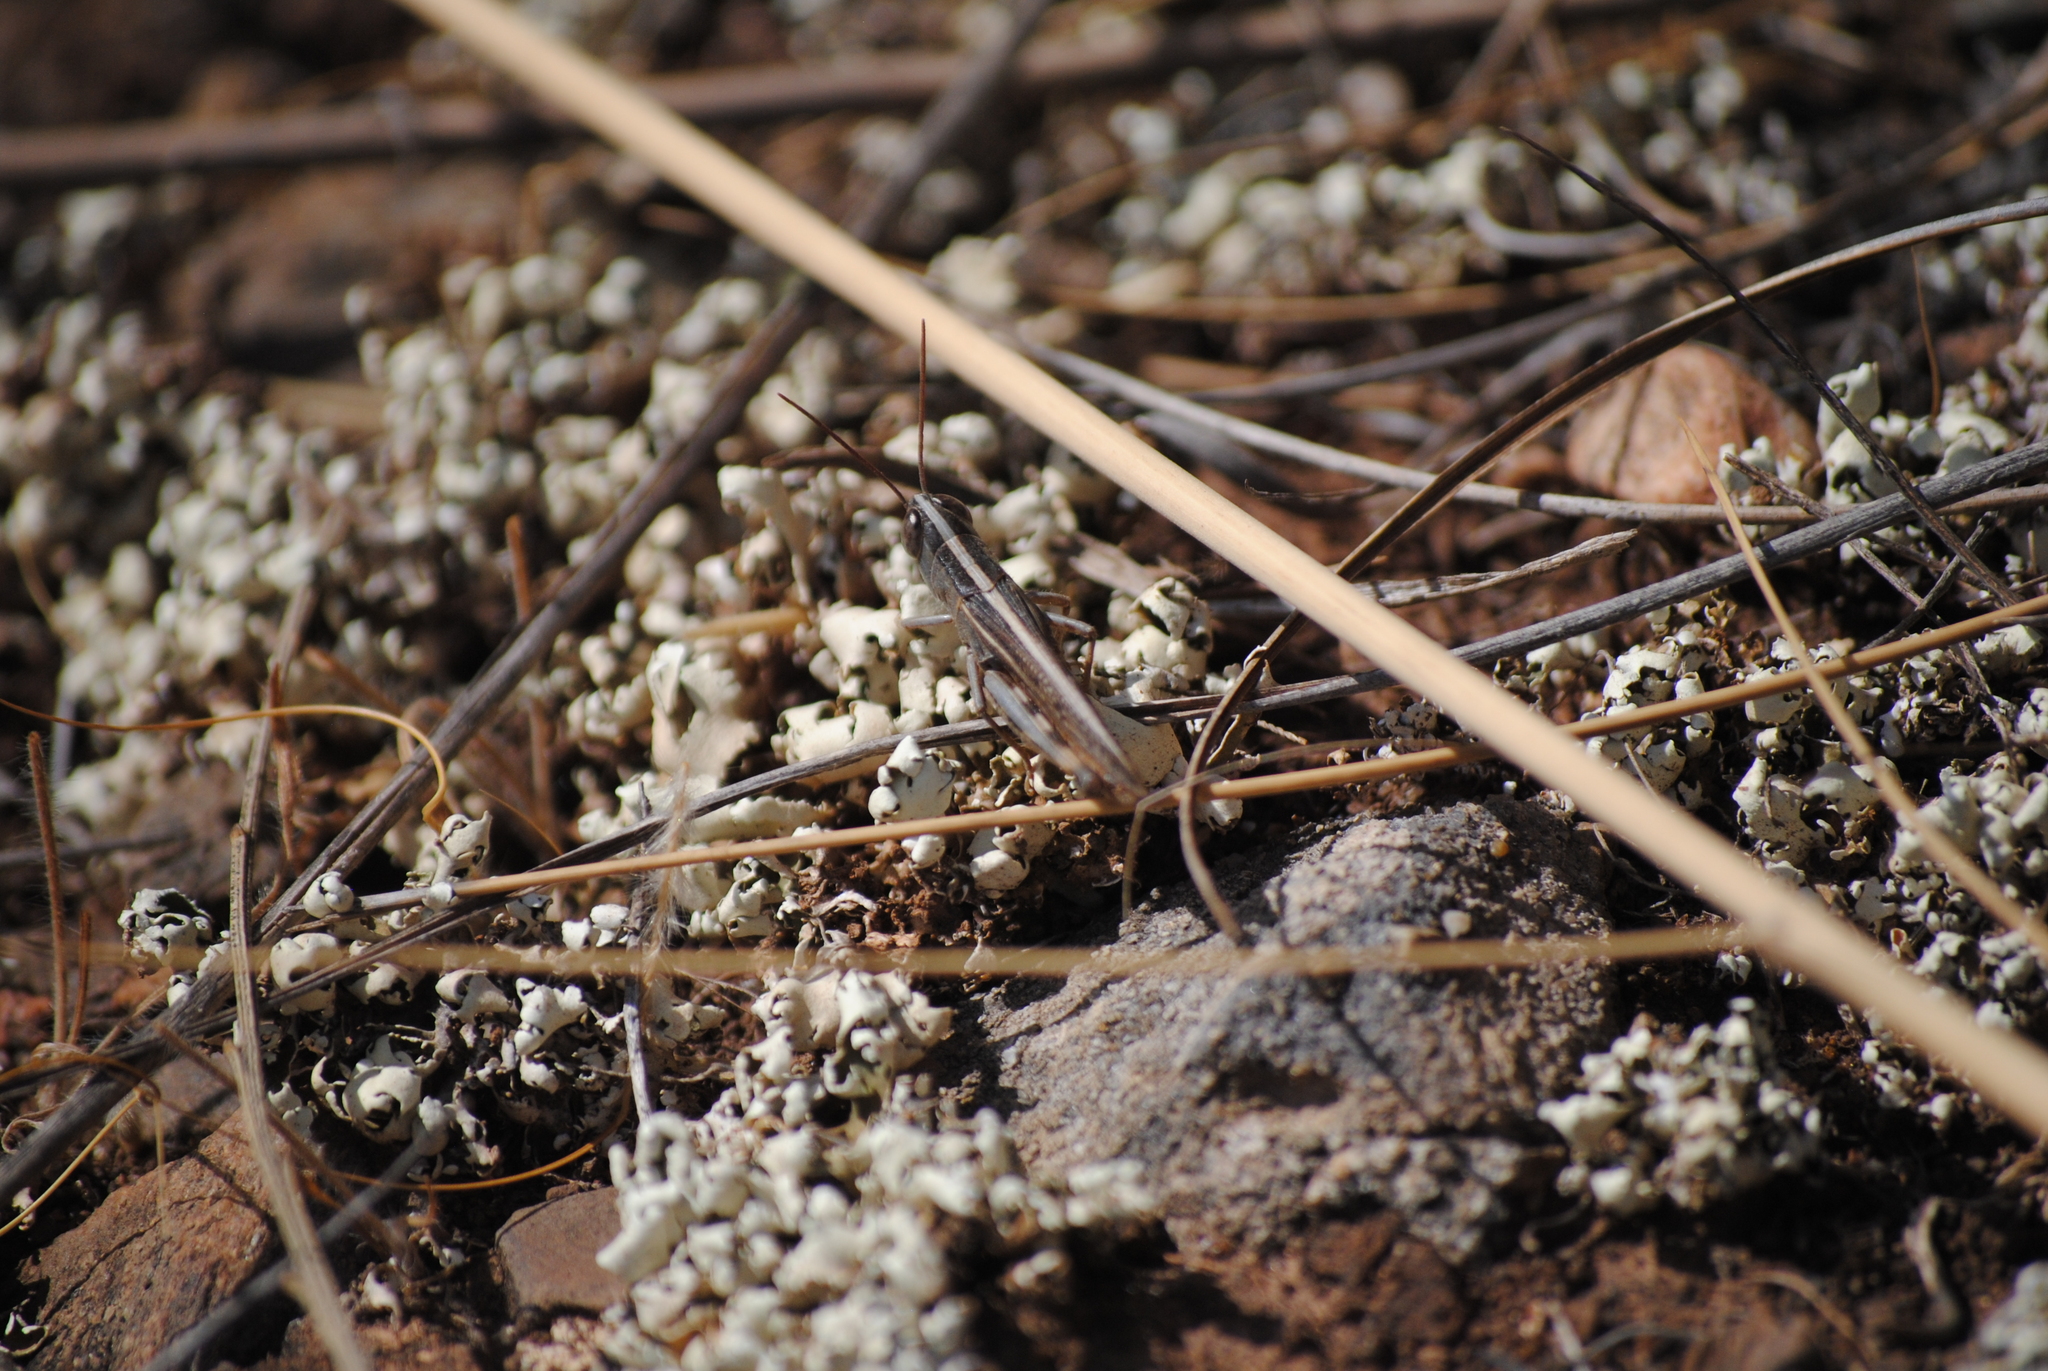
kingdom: Animalia
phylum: Arthropoda
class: Insecta
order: Orthoptera
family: Acrididae
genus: Ramburiella
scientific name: Ramburiella hispanica
